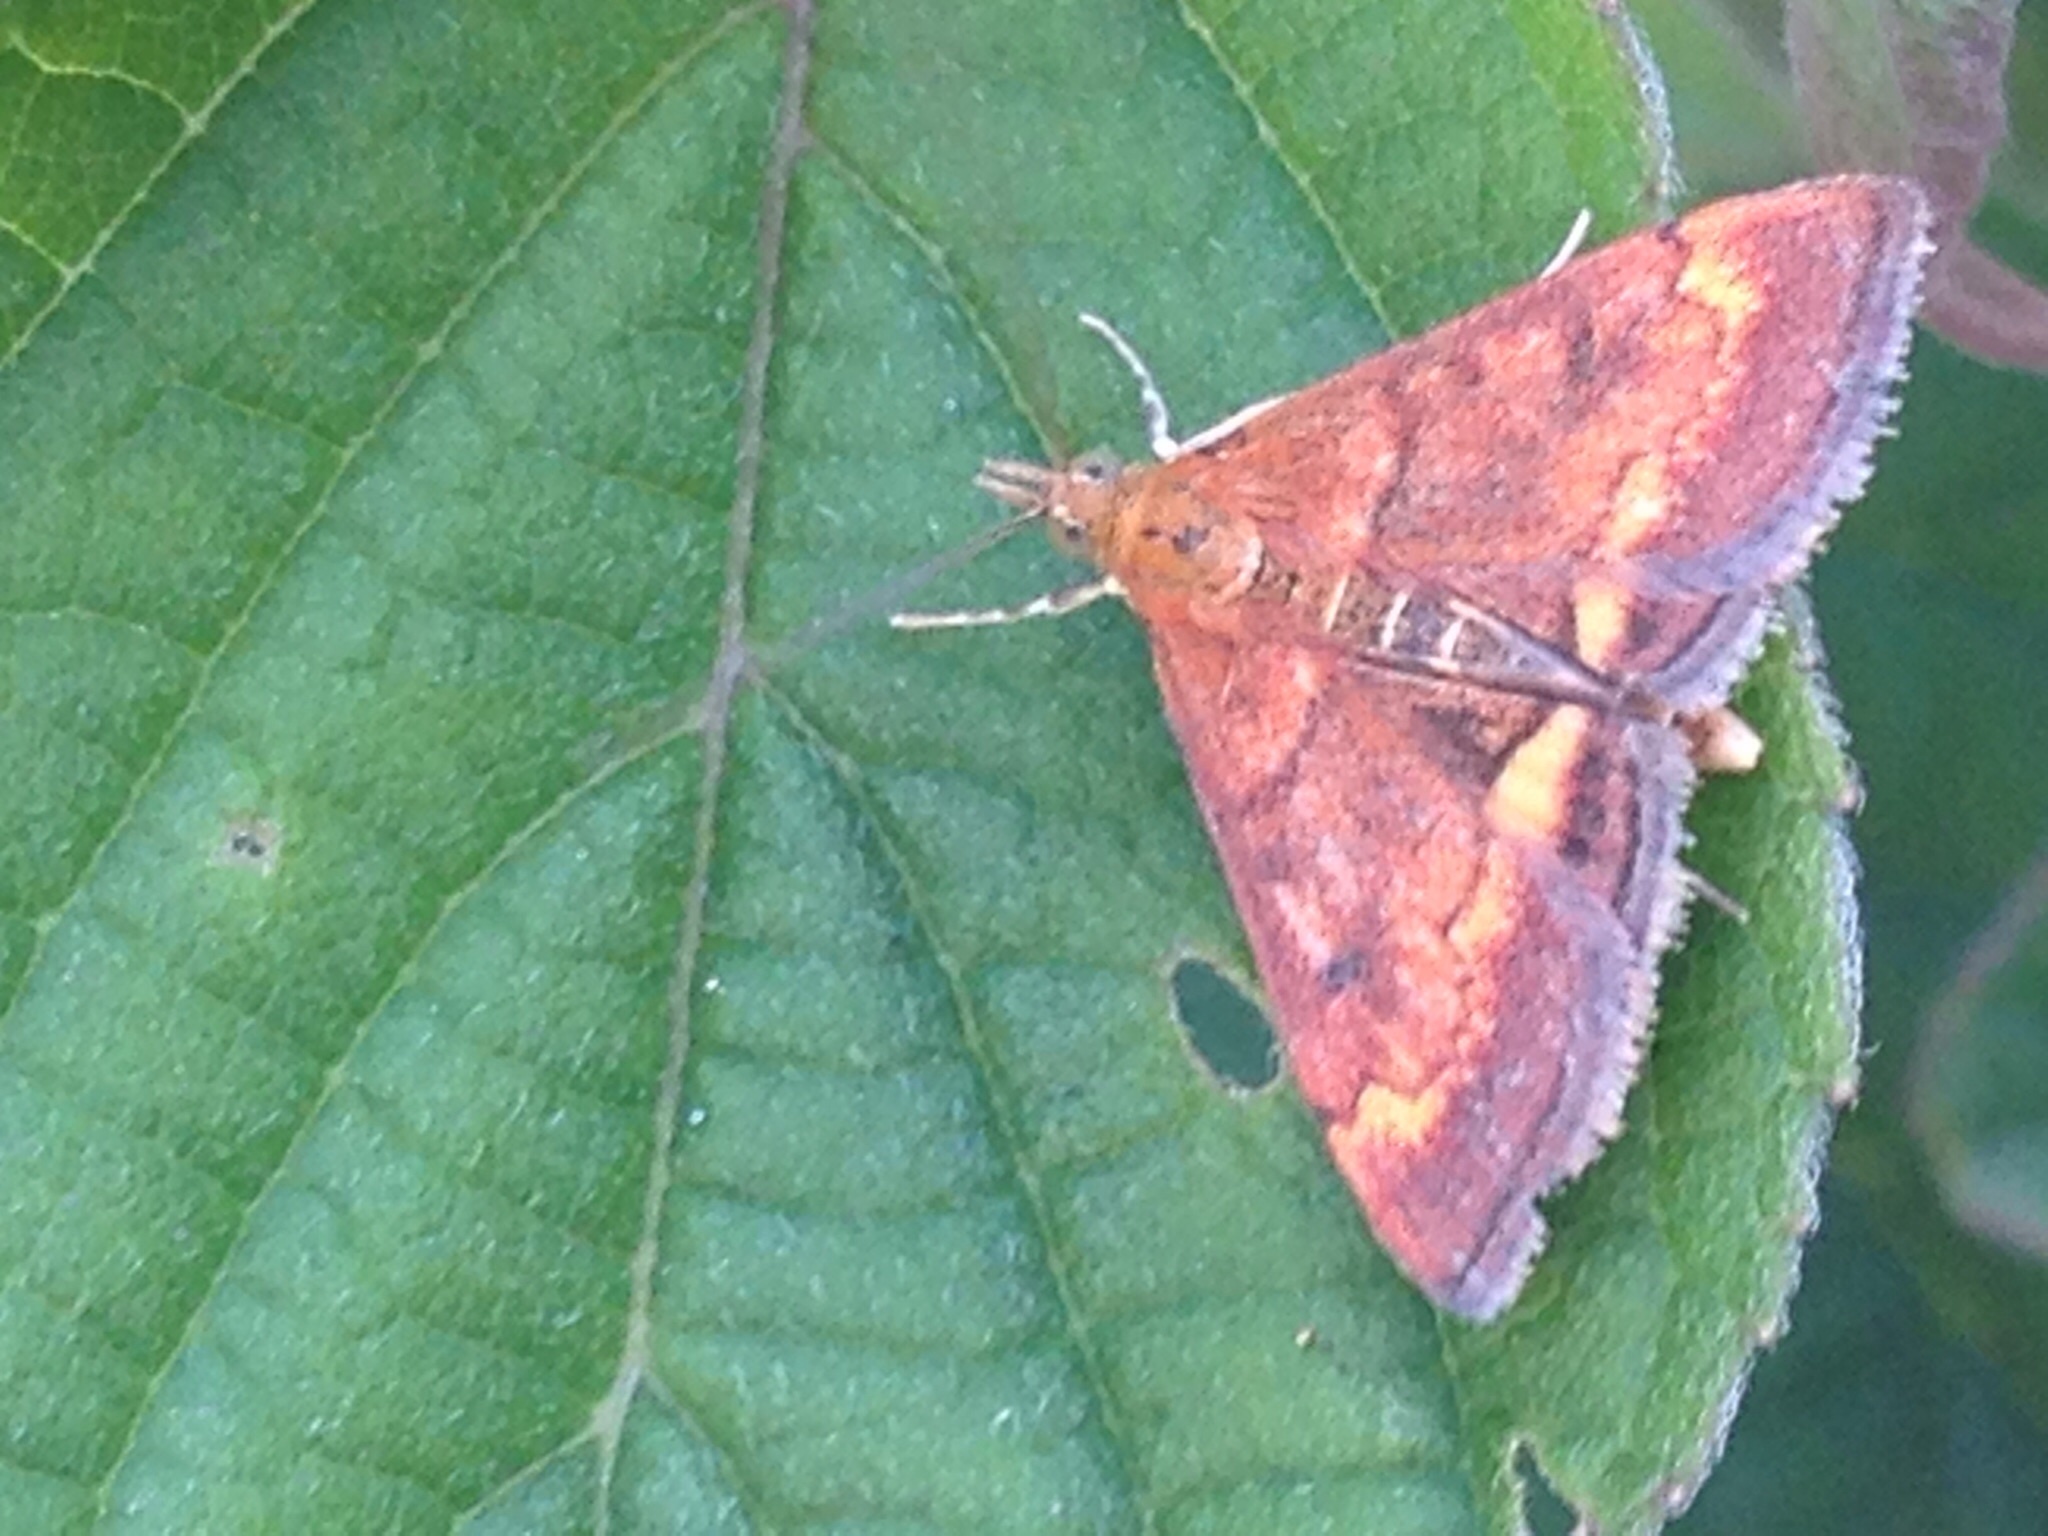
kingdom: Animalia
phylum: Arthropoda
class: Insecta
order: Lepidoptera
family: Crambidae
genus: Pyrausta
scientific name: Pyrausta californicalis
